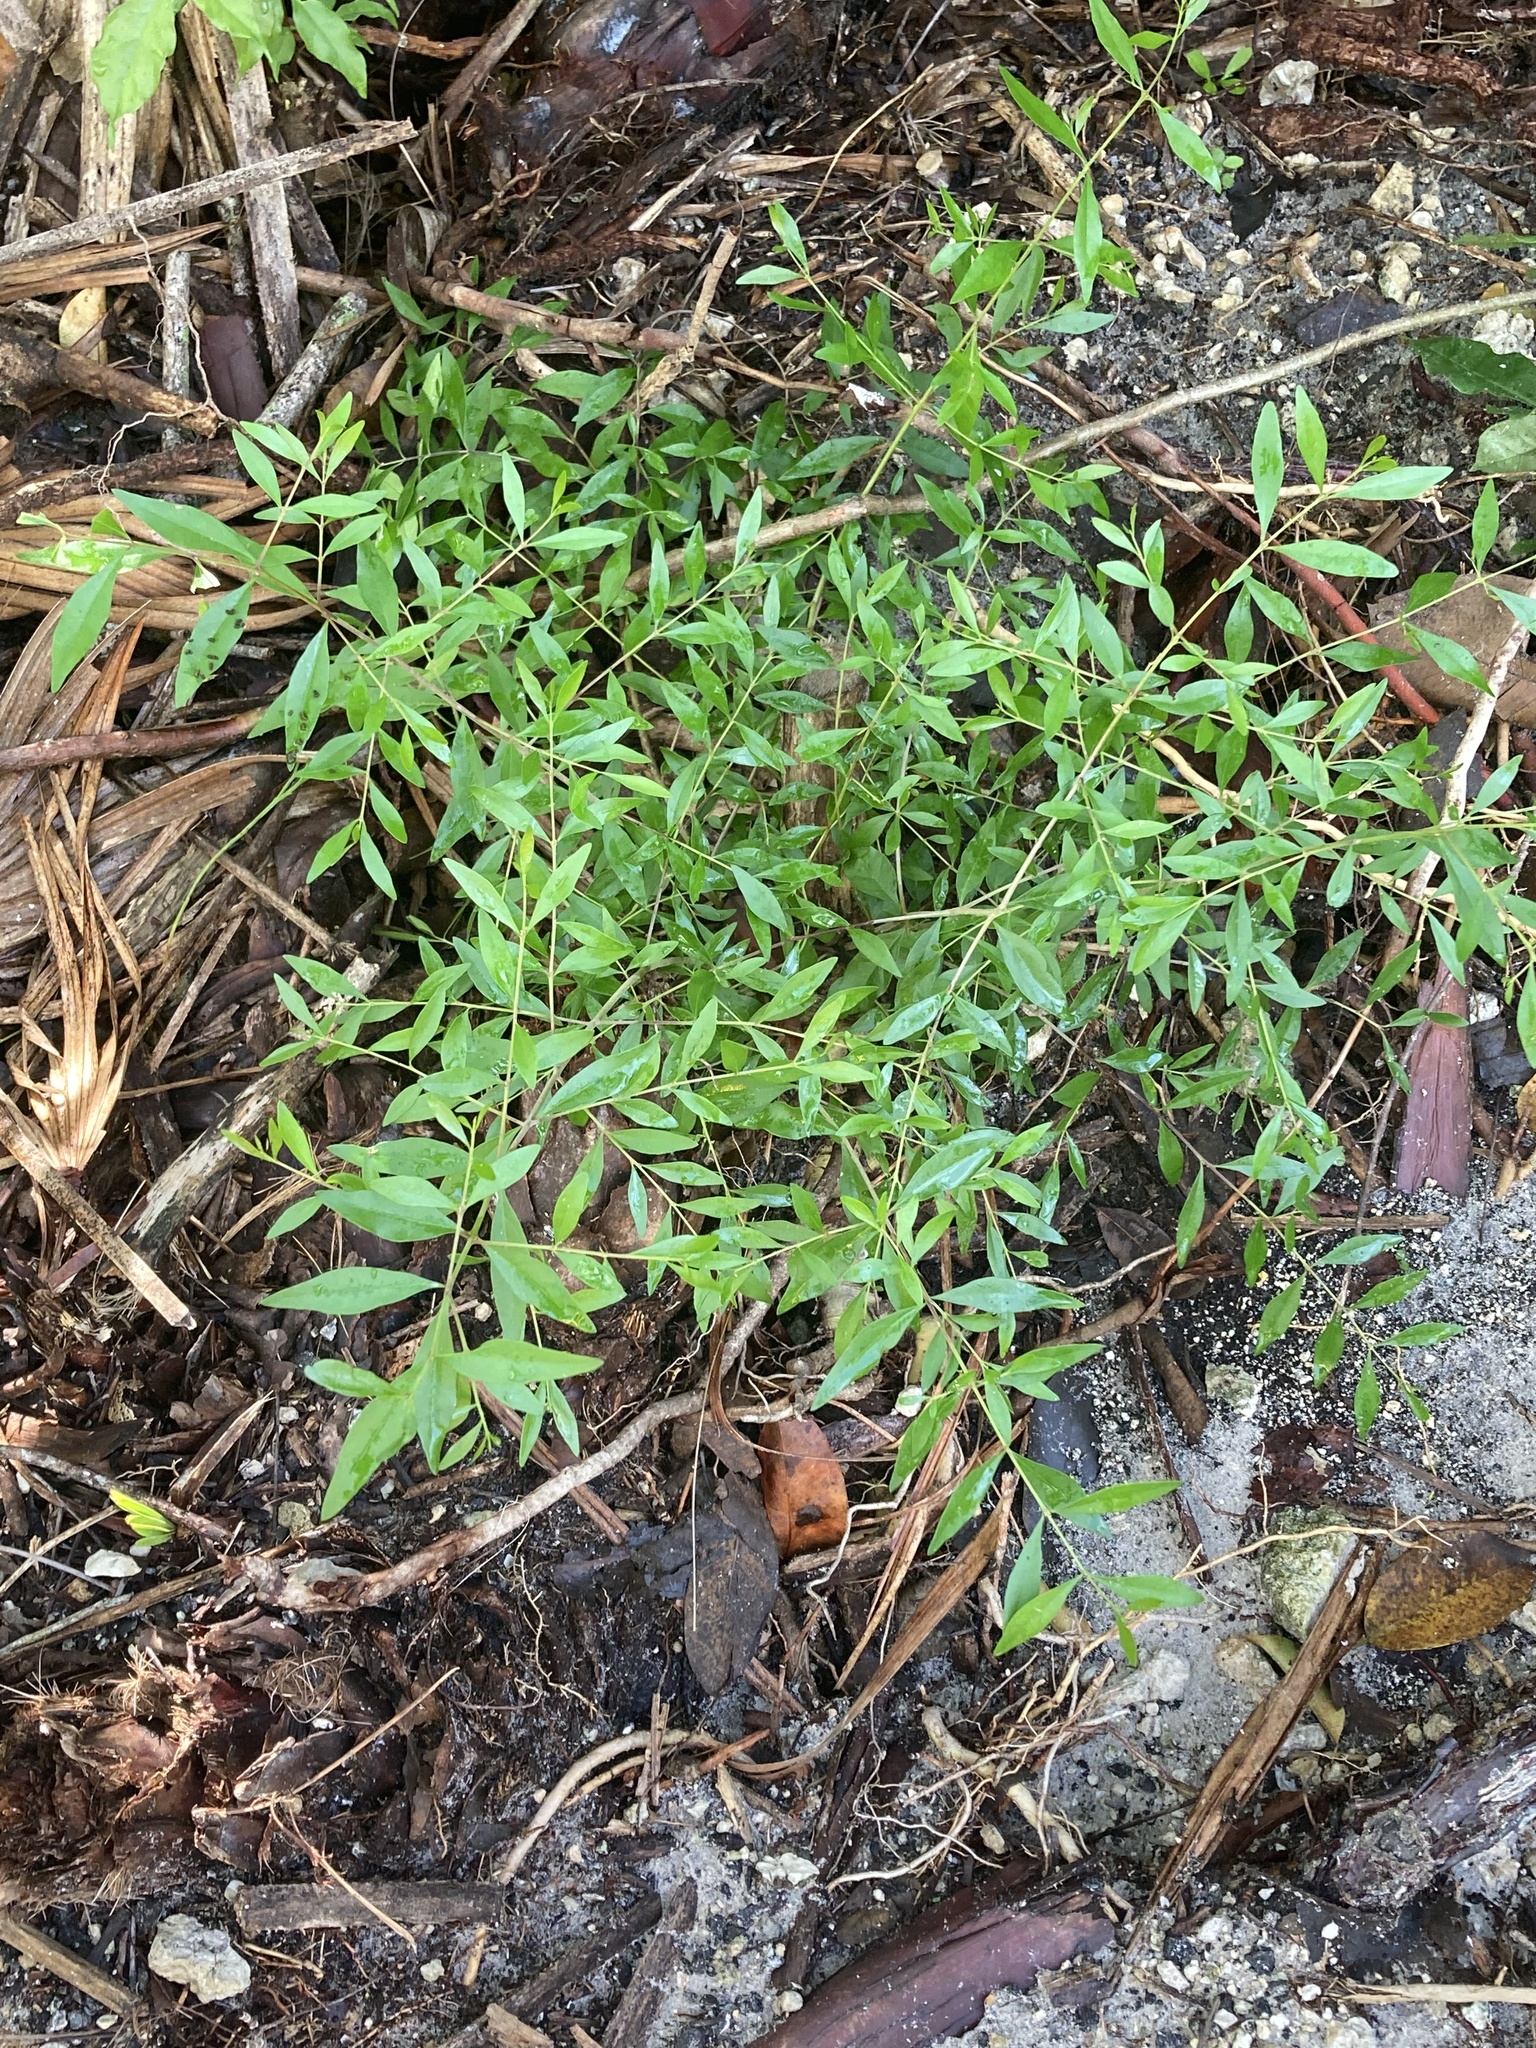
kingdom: Plantae
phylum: Tracheophyta
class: Magnoliopsida
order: Lamiales
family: Oleaceae
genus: Forestiera
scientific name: Forestiera segregata
